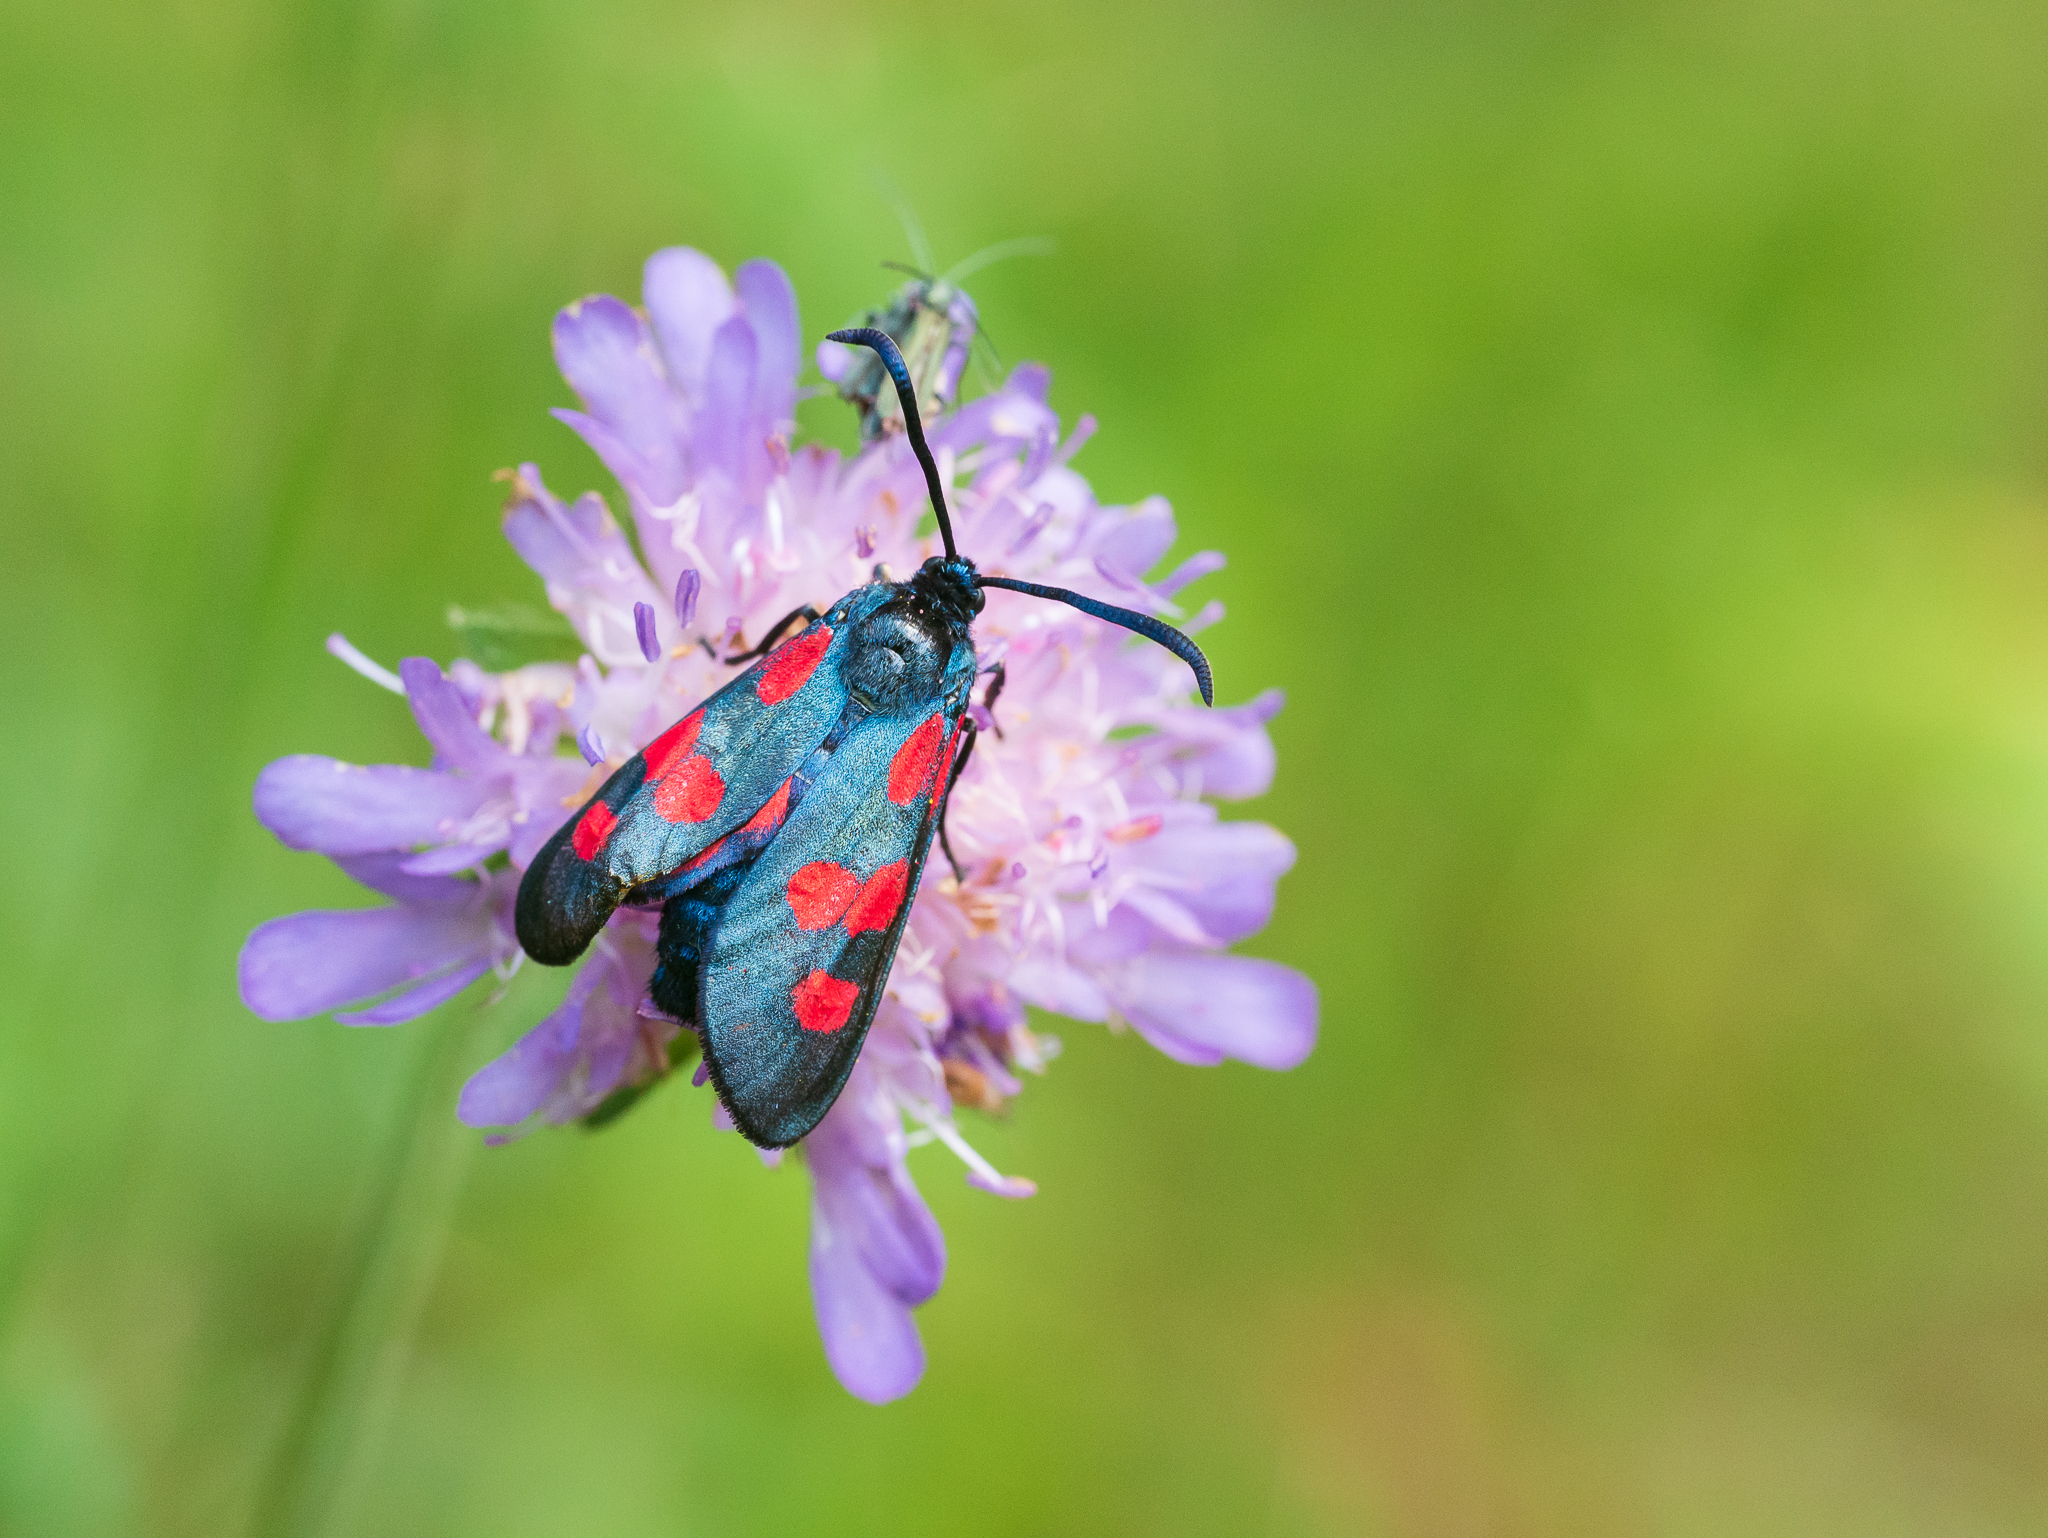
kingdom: Animalia
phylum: Arthropoda
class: Insecta
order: Lepidoptera
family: Zygaenidae
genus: Zygaena
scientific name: Zygaena lonicerae
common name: Narrow-bordered five-spot burnet
